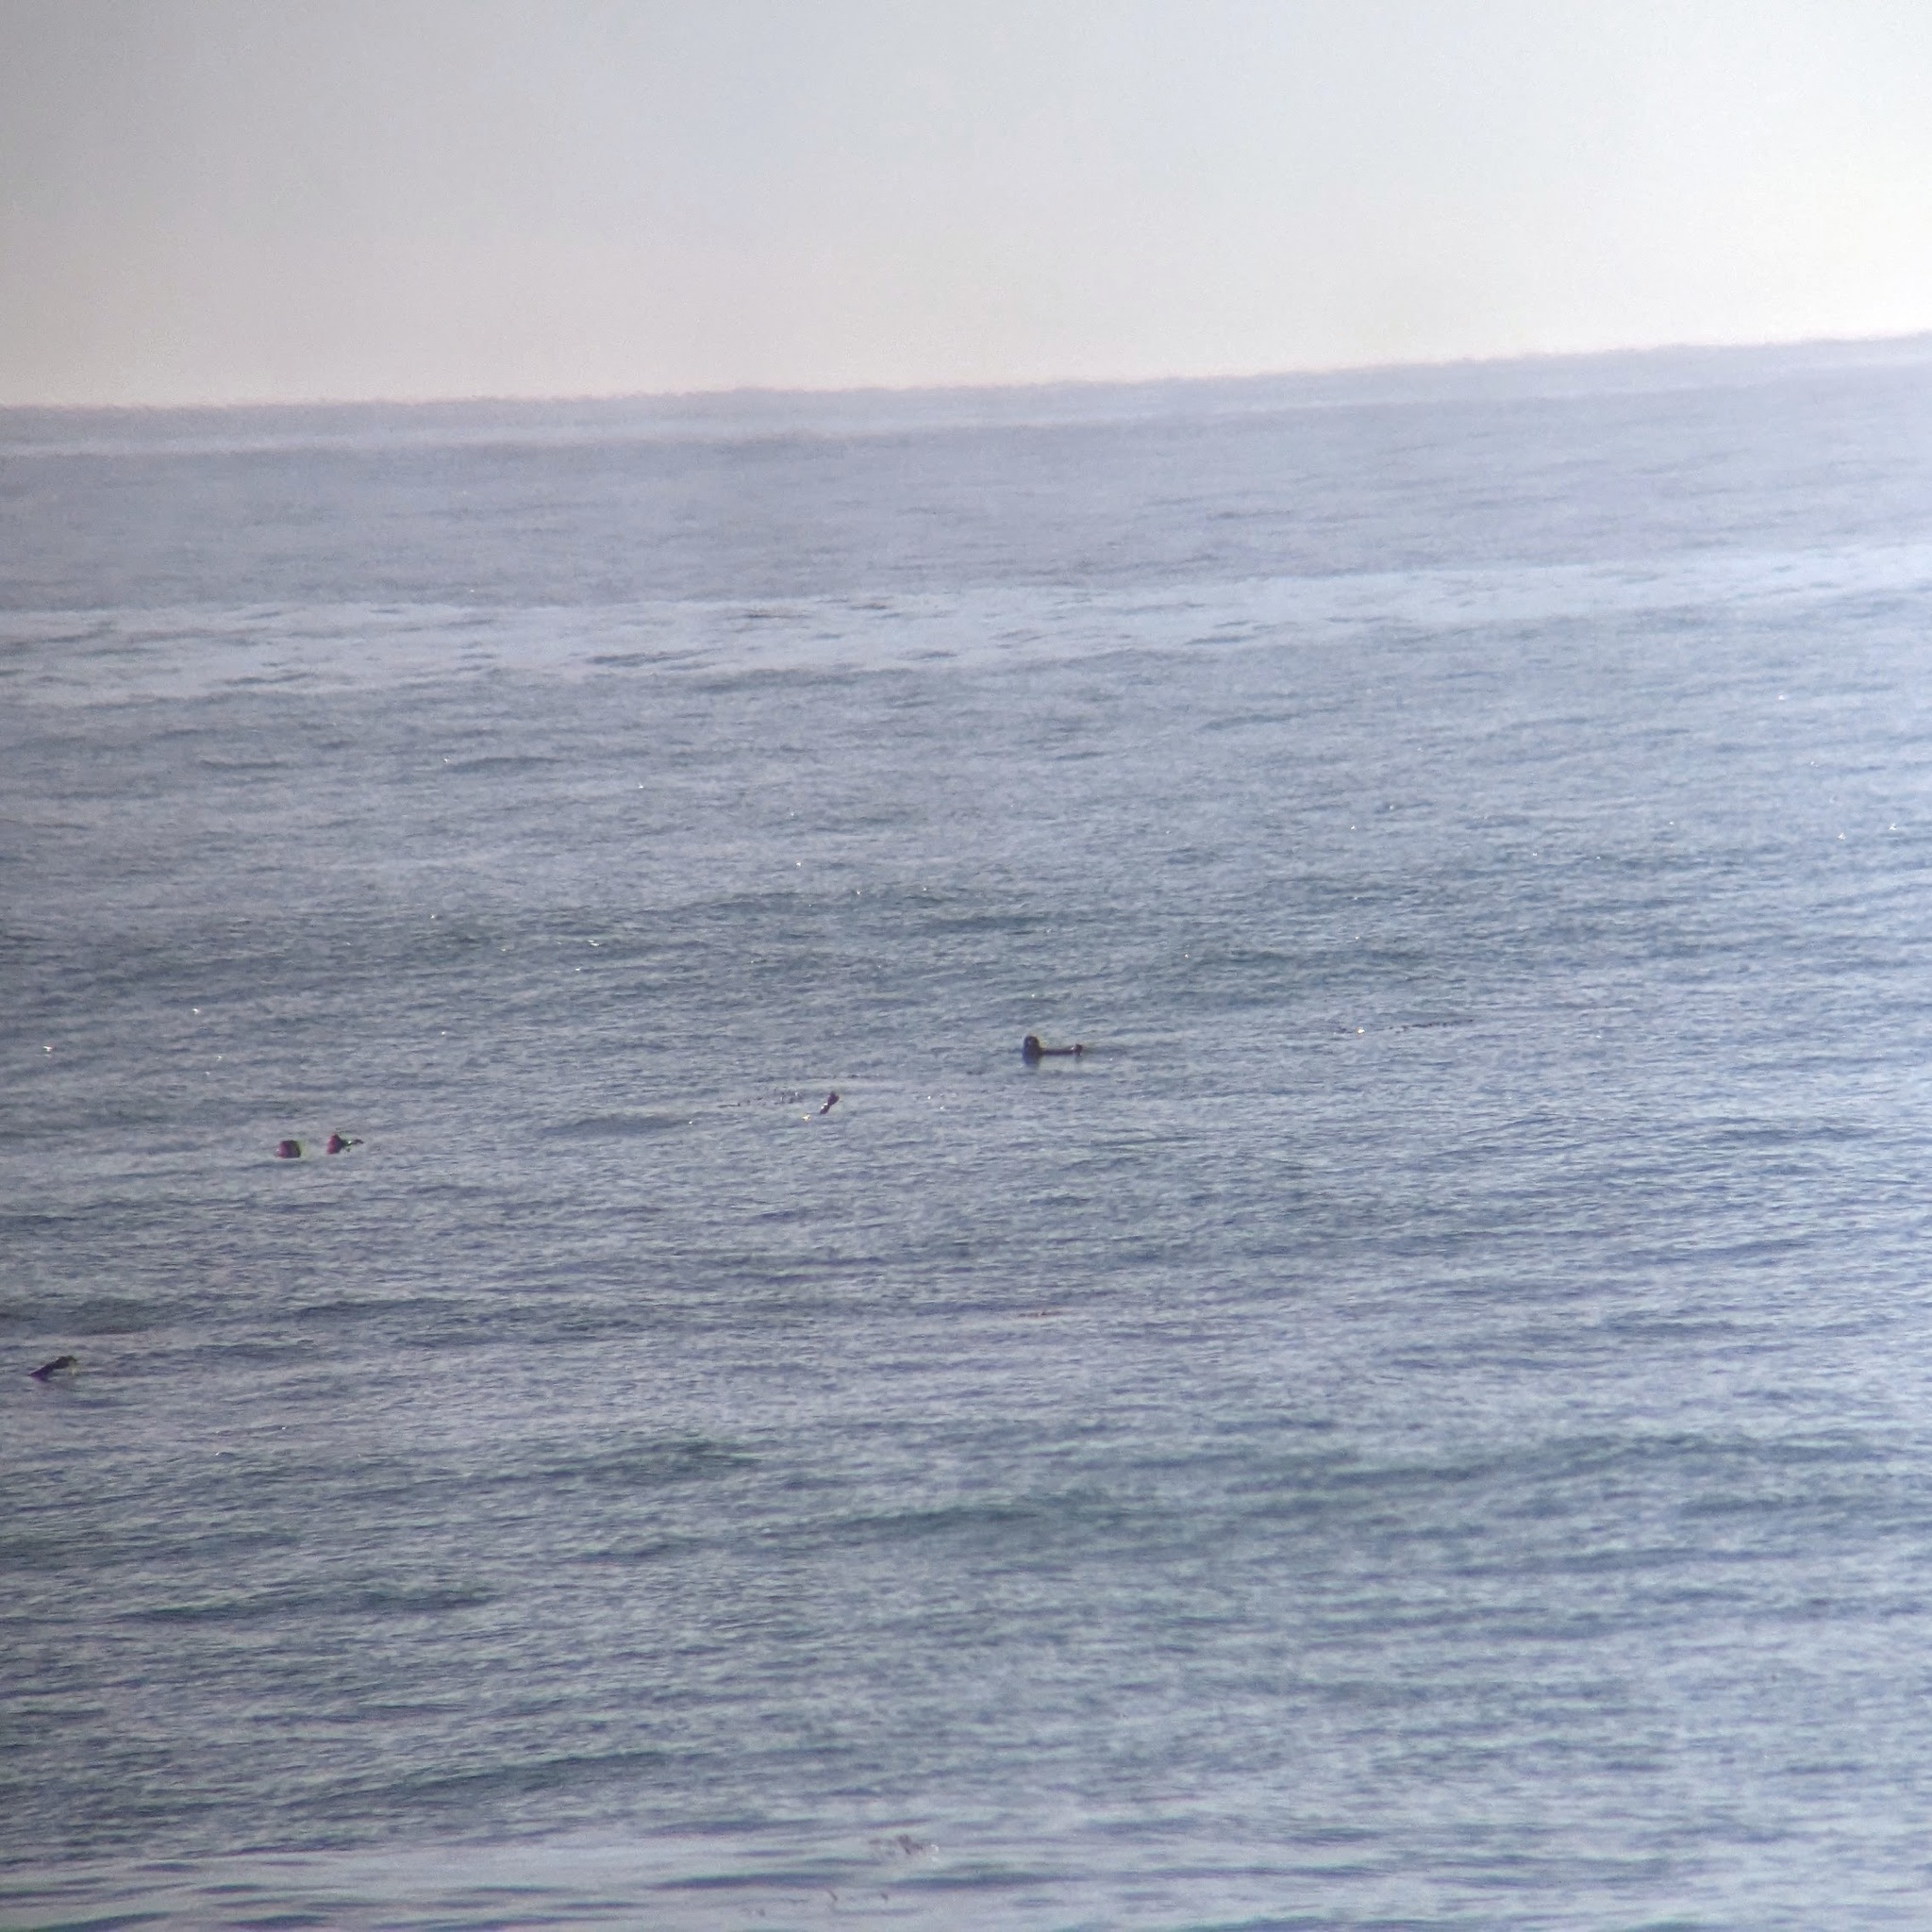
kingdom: Animalia
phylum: Chordata
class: Mammalia
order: Carnivora
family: Mustelidae
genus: Enhydra
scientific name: Enhydra lutris
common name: Sea otter
